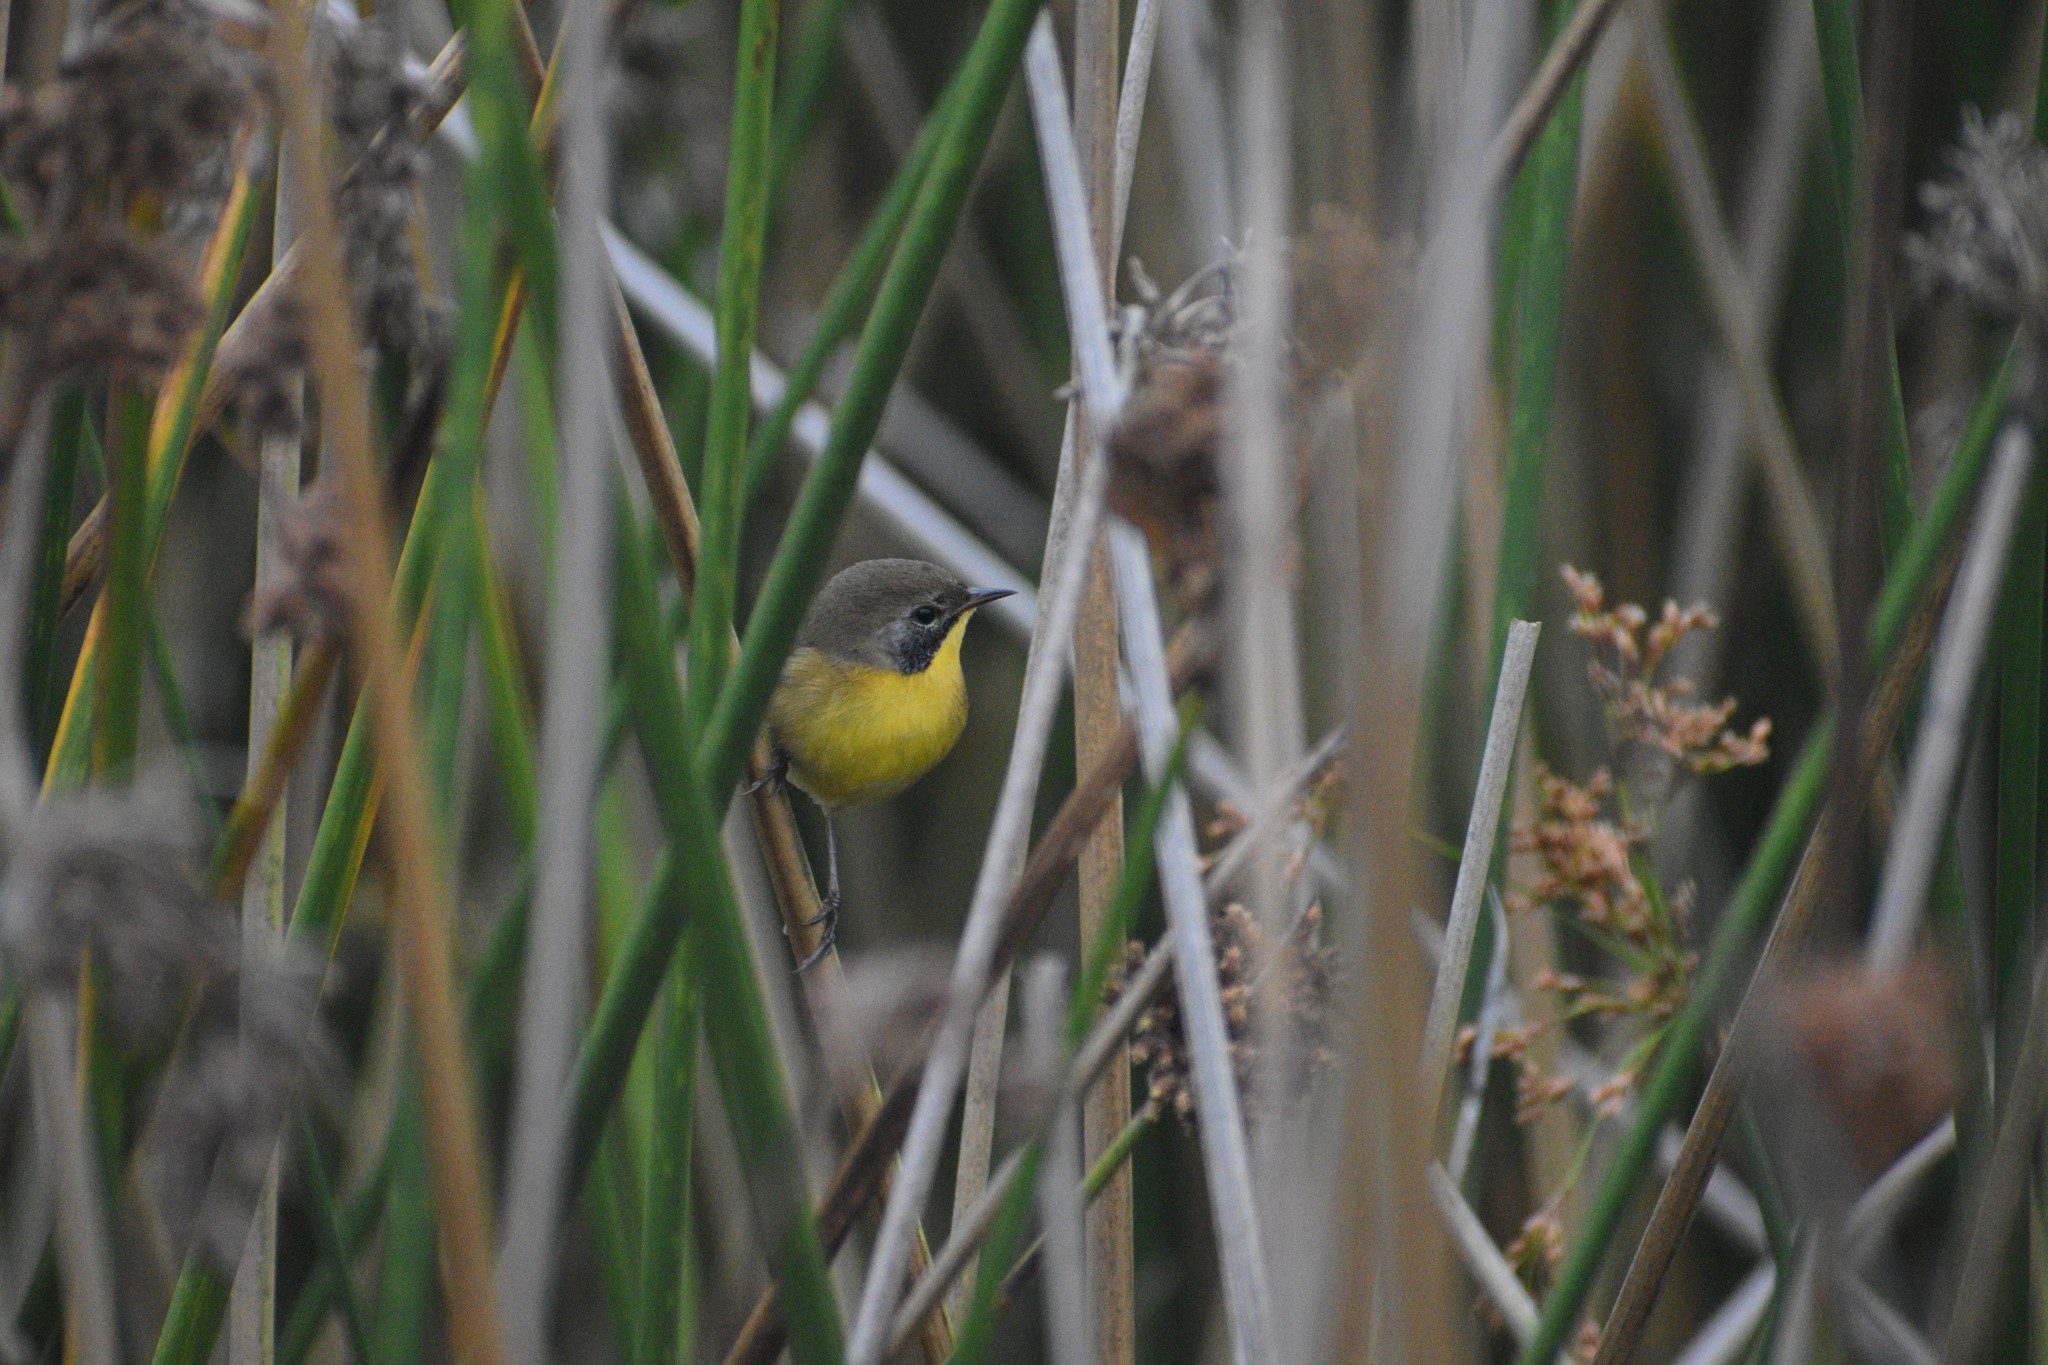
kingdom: Animalia
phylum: Chordata
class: Aves
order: Passeriformes
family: Parulidae
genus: Geothlypis
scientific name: Geothlypis trichas
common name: Common yellowthroat
